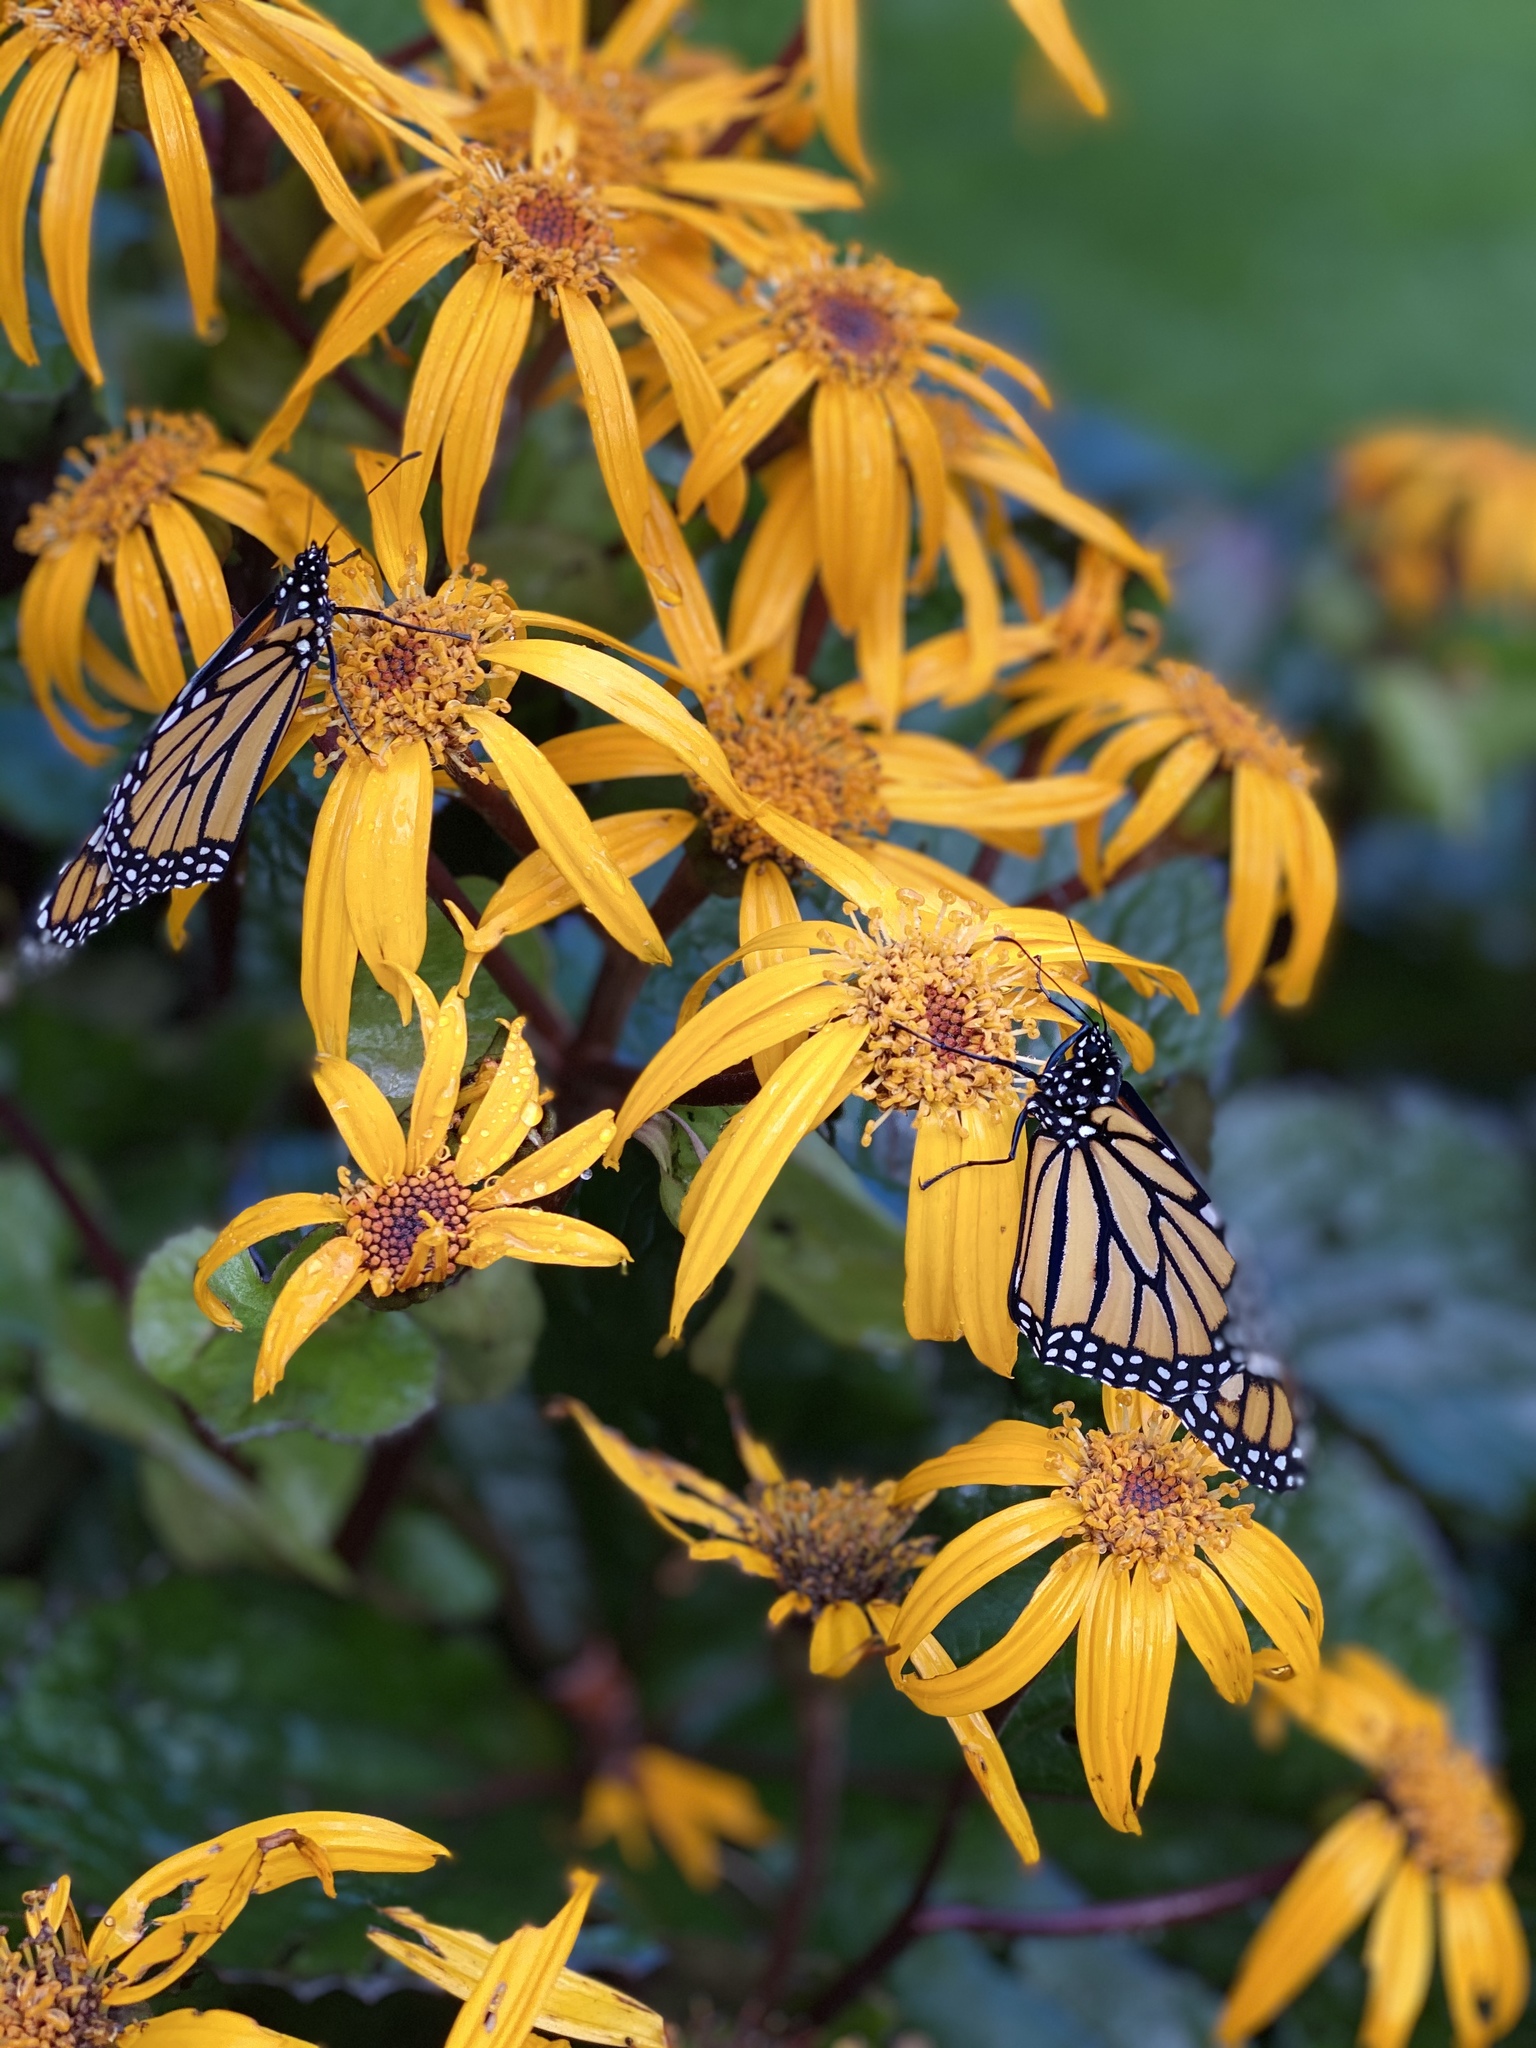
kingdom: Animalia
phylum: Arthropoda
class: Insecta
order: Lepidoptera
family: Nymphalidae
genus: Danaus
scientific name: Danaus plexippus
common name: Monarch
